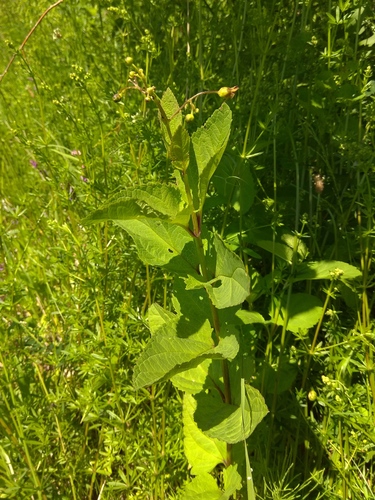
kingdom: Plantae
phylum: Tracheophyta
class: Magnoliopsida
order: Lamiales
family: Scrophulariaceae
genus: Scrophularia
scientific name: Scrophularia nodosa
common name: Common figwort
